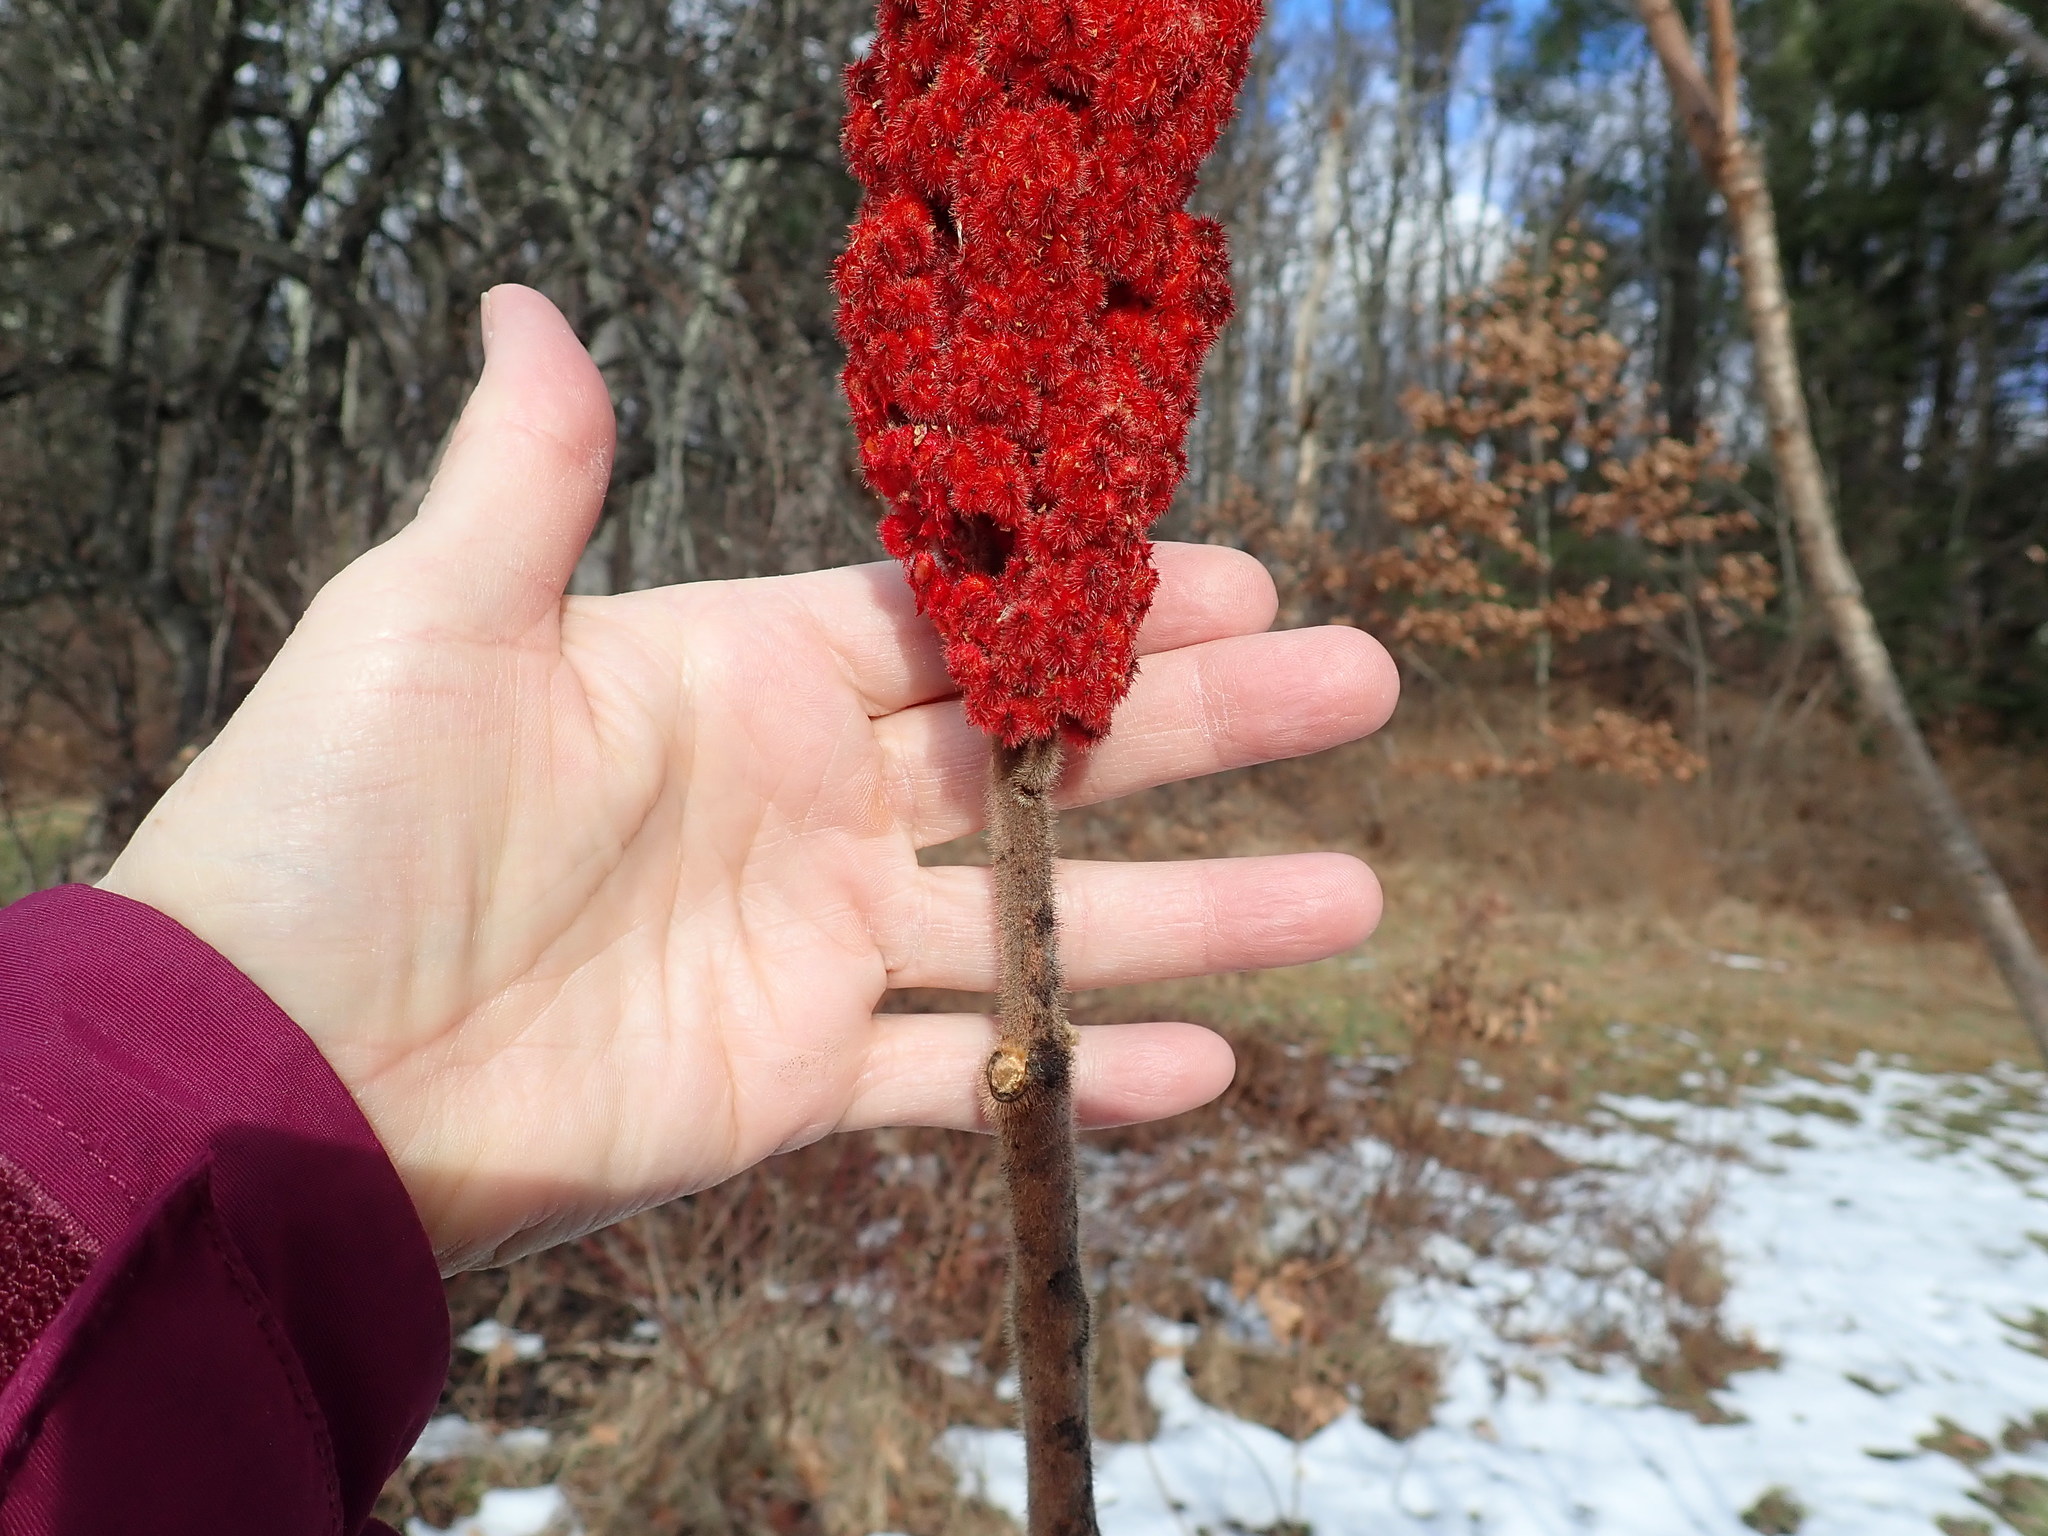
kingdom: Plantae
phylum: Tracheophyta
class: Magnoliopsida
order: Sapindales
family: Anacardiaceae
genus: Rhus
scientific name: Rhus typhina
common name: Staghorn sumac
